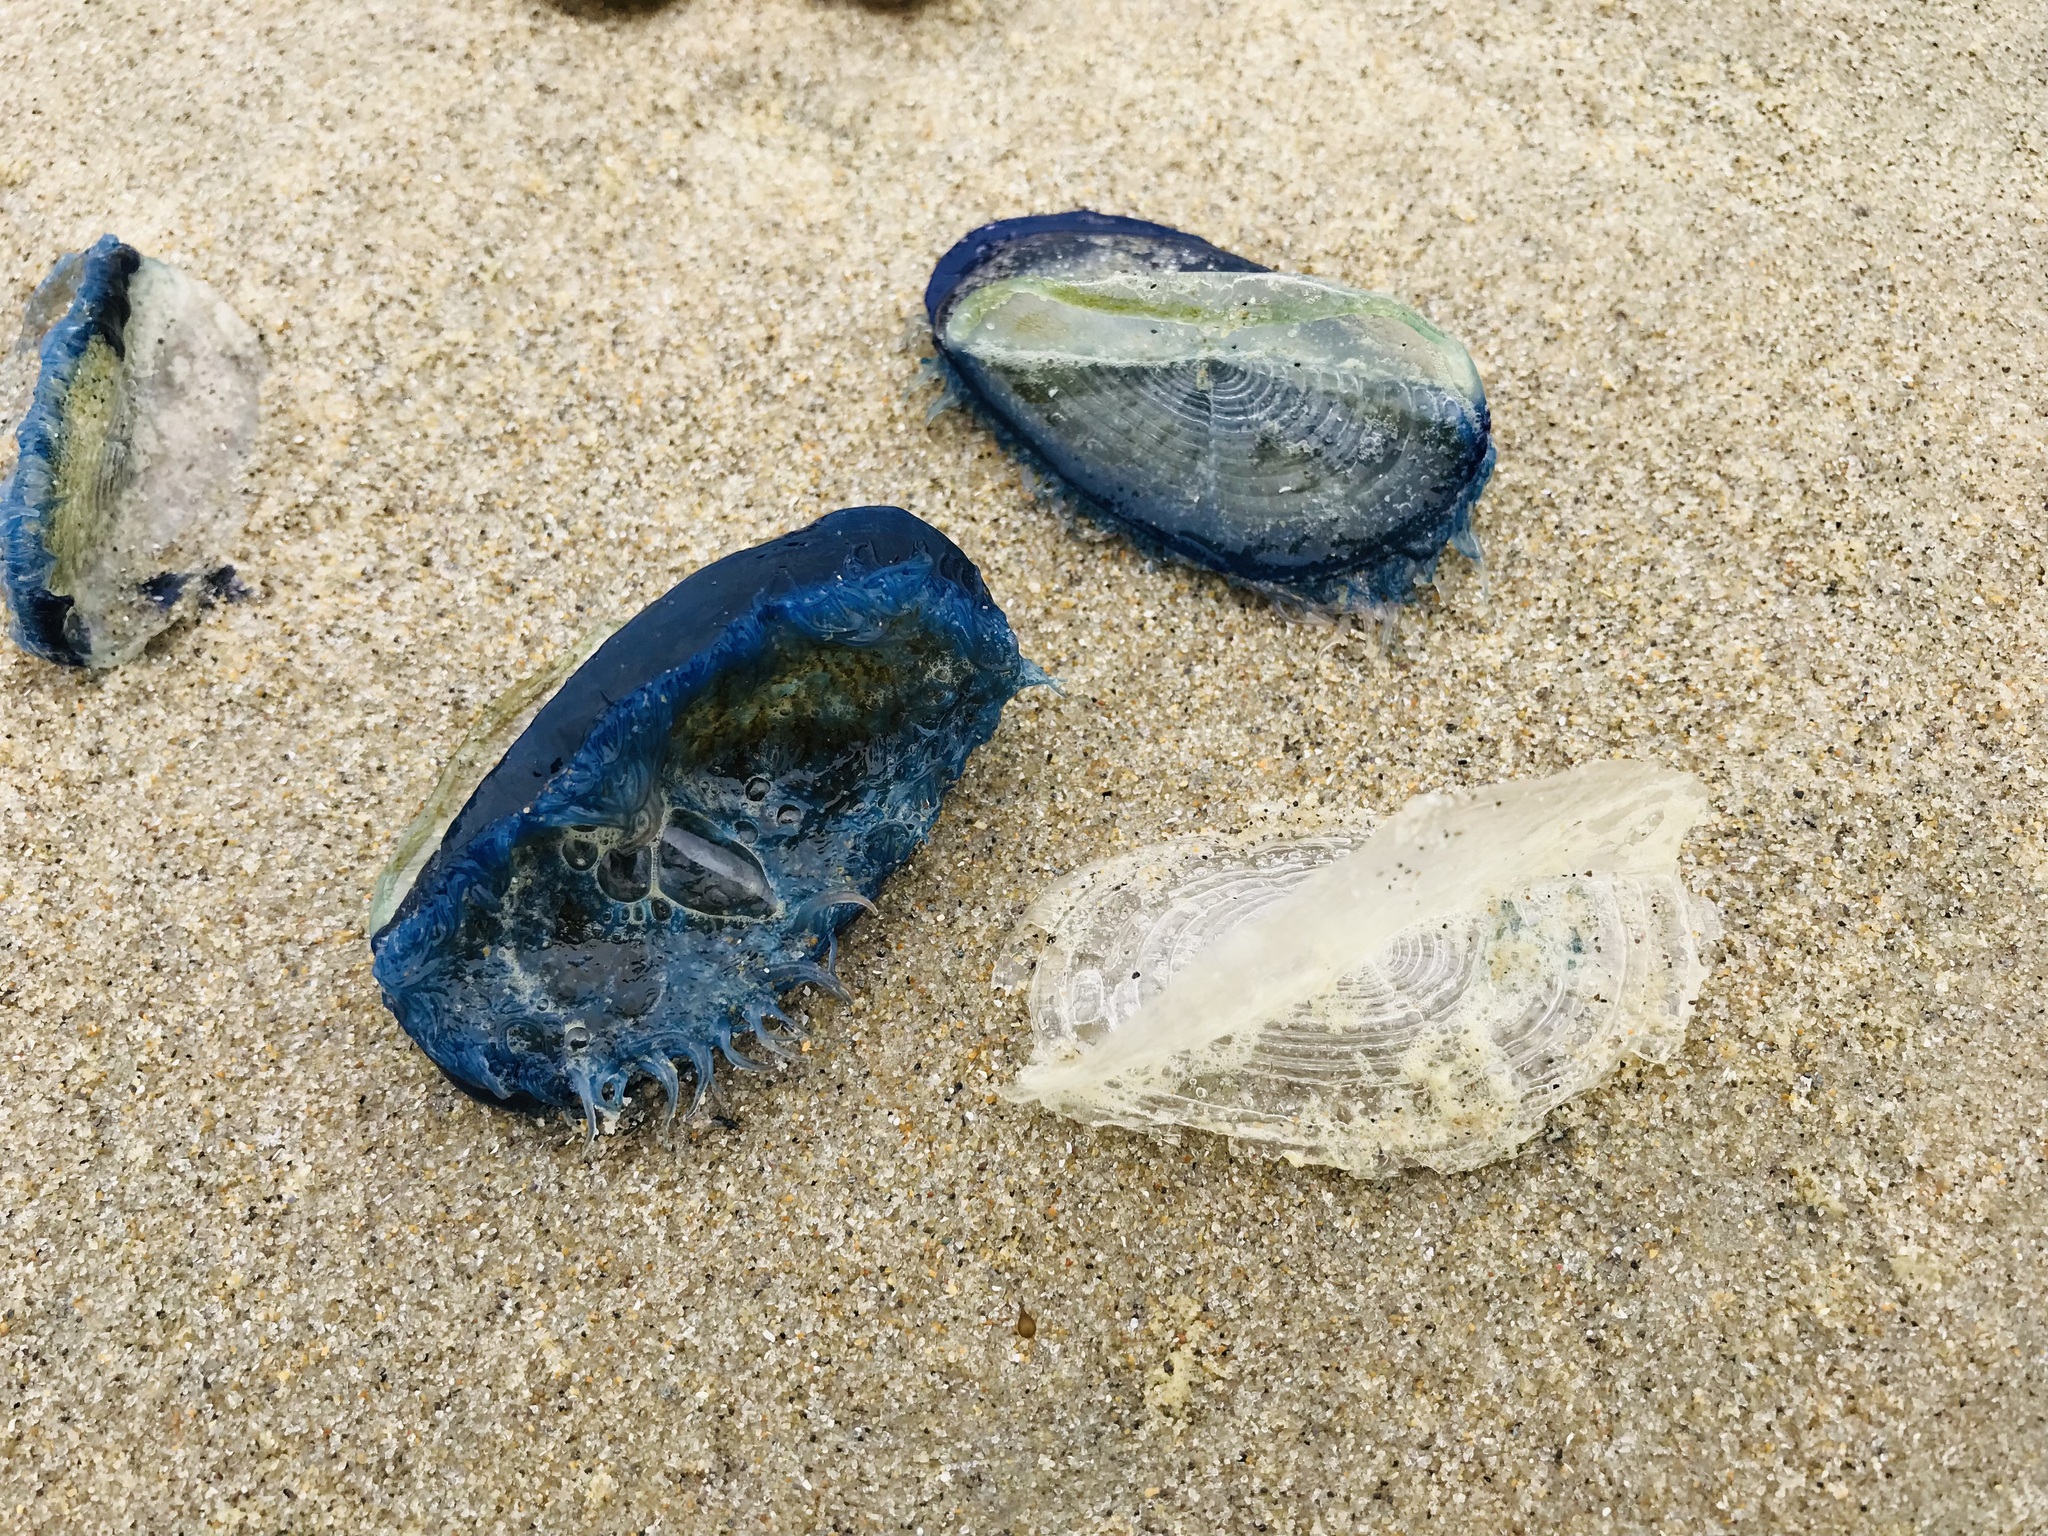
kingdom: Animalia
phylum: Cnidaria
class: Hydrozoa
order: Anthoathecata
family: Porpitidae
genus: Velella
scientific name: Velella velella
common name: By-the-wind-sailor
